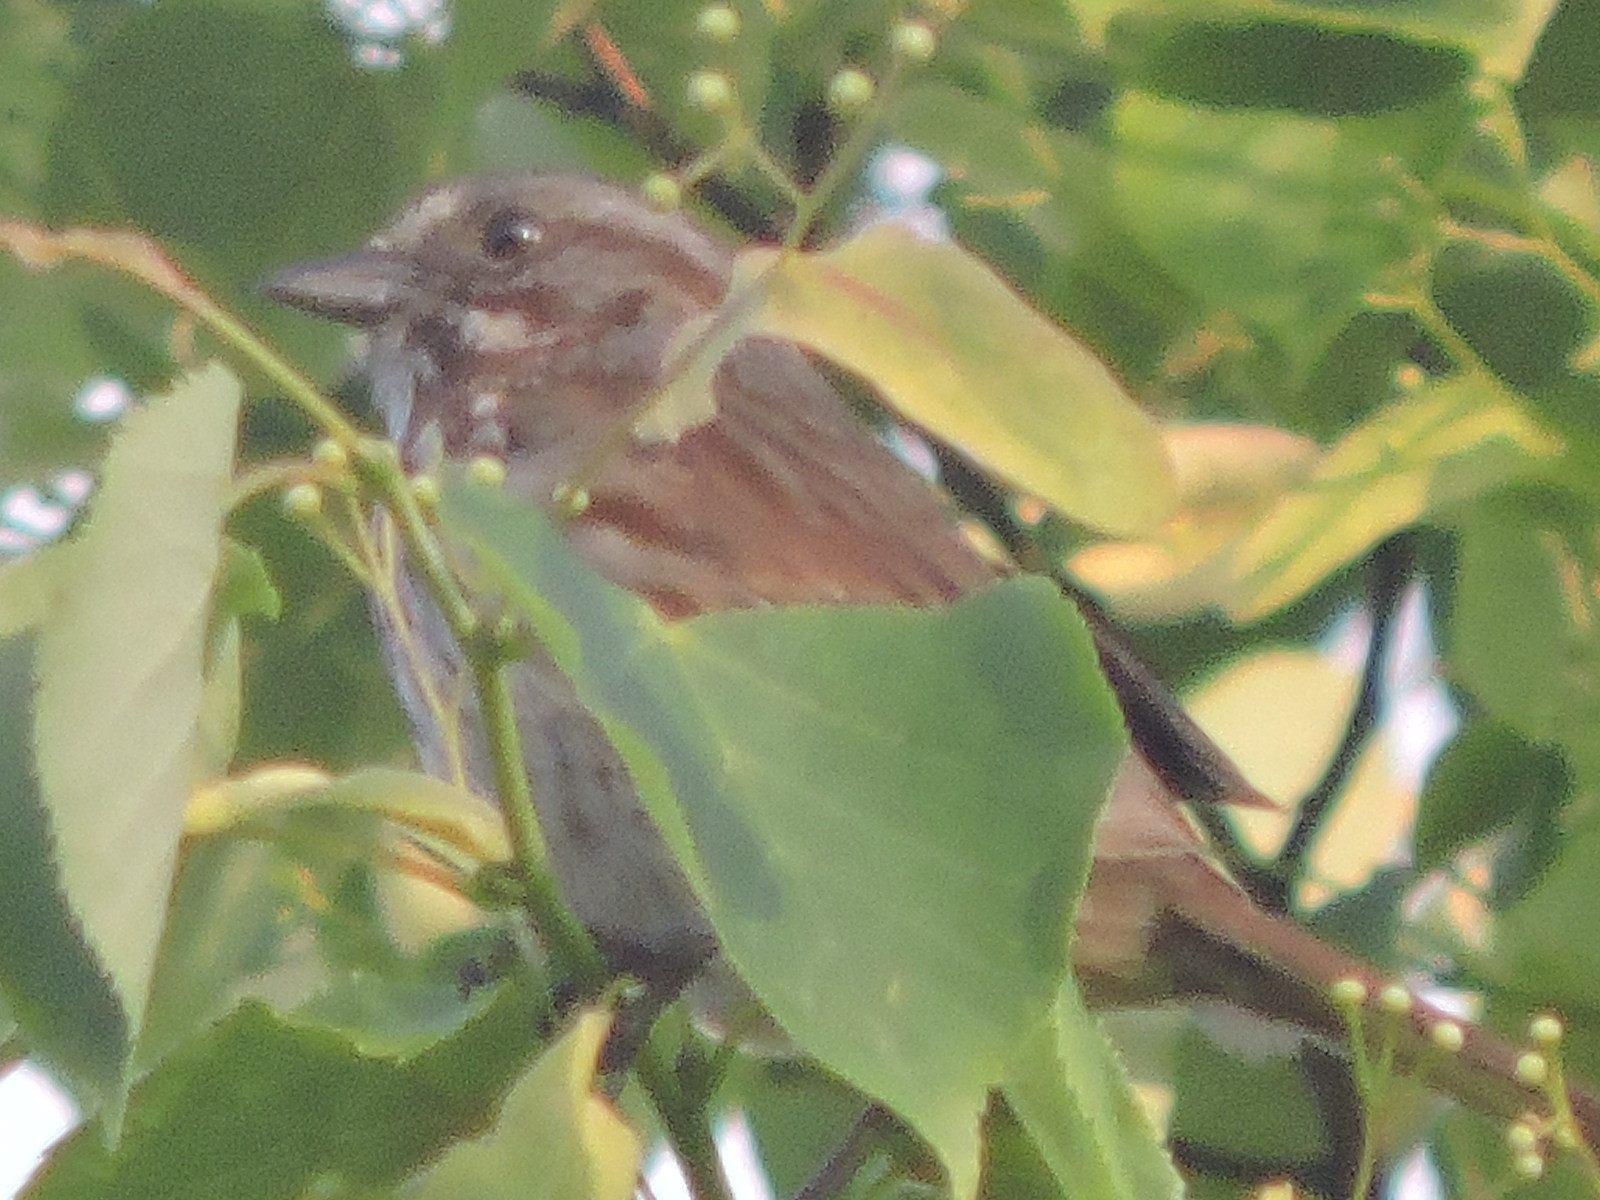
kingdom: Animalia
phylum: Chordata
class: Aves
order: Passeriformes
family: Passerellidae
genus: Melospiza
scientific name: Melospiza melodia
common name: Song sparrow
